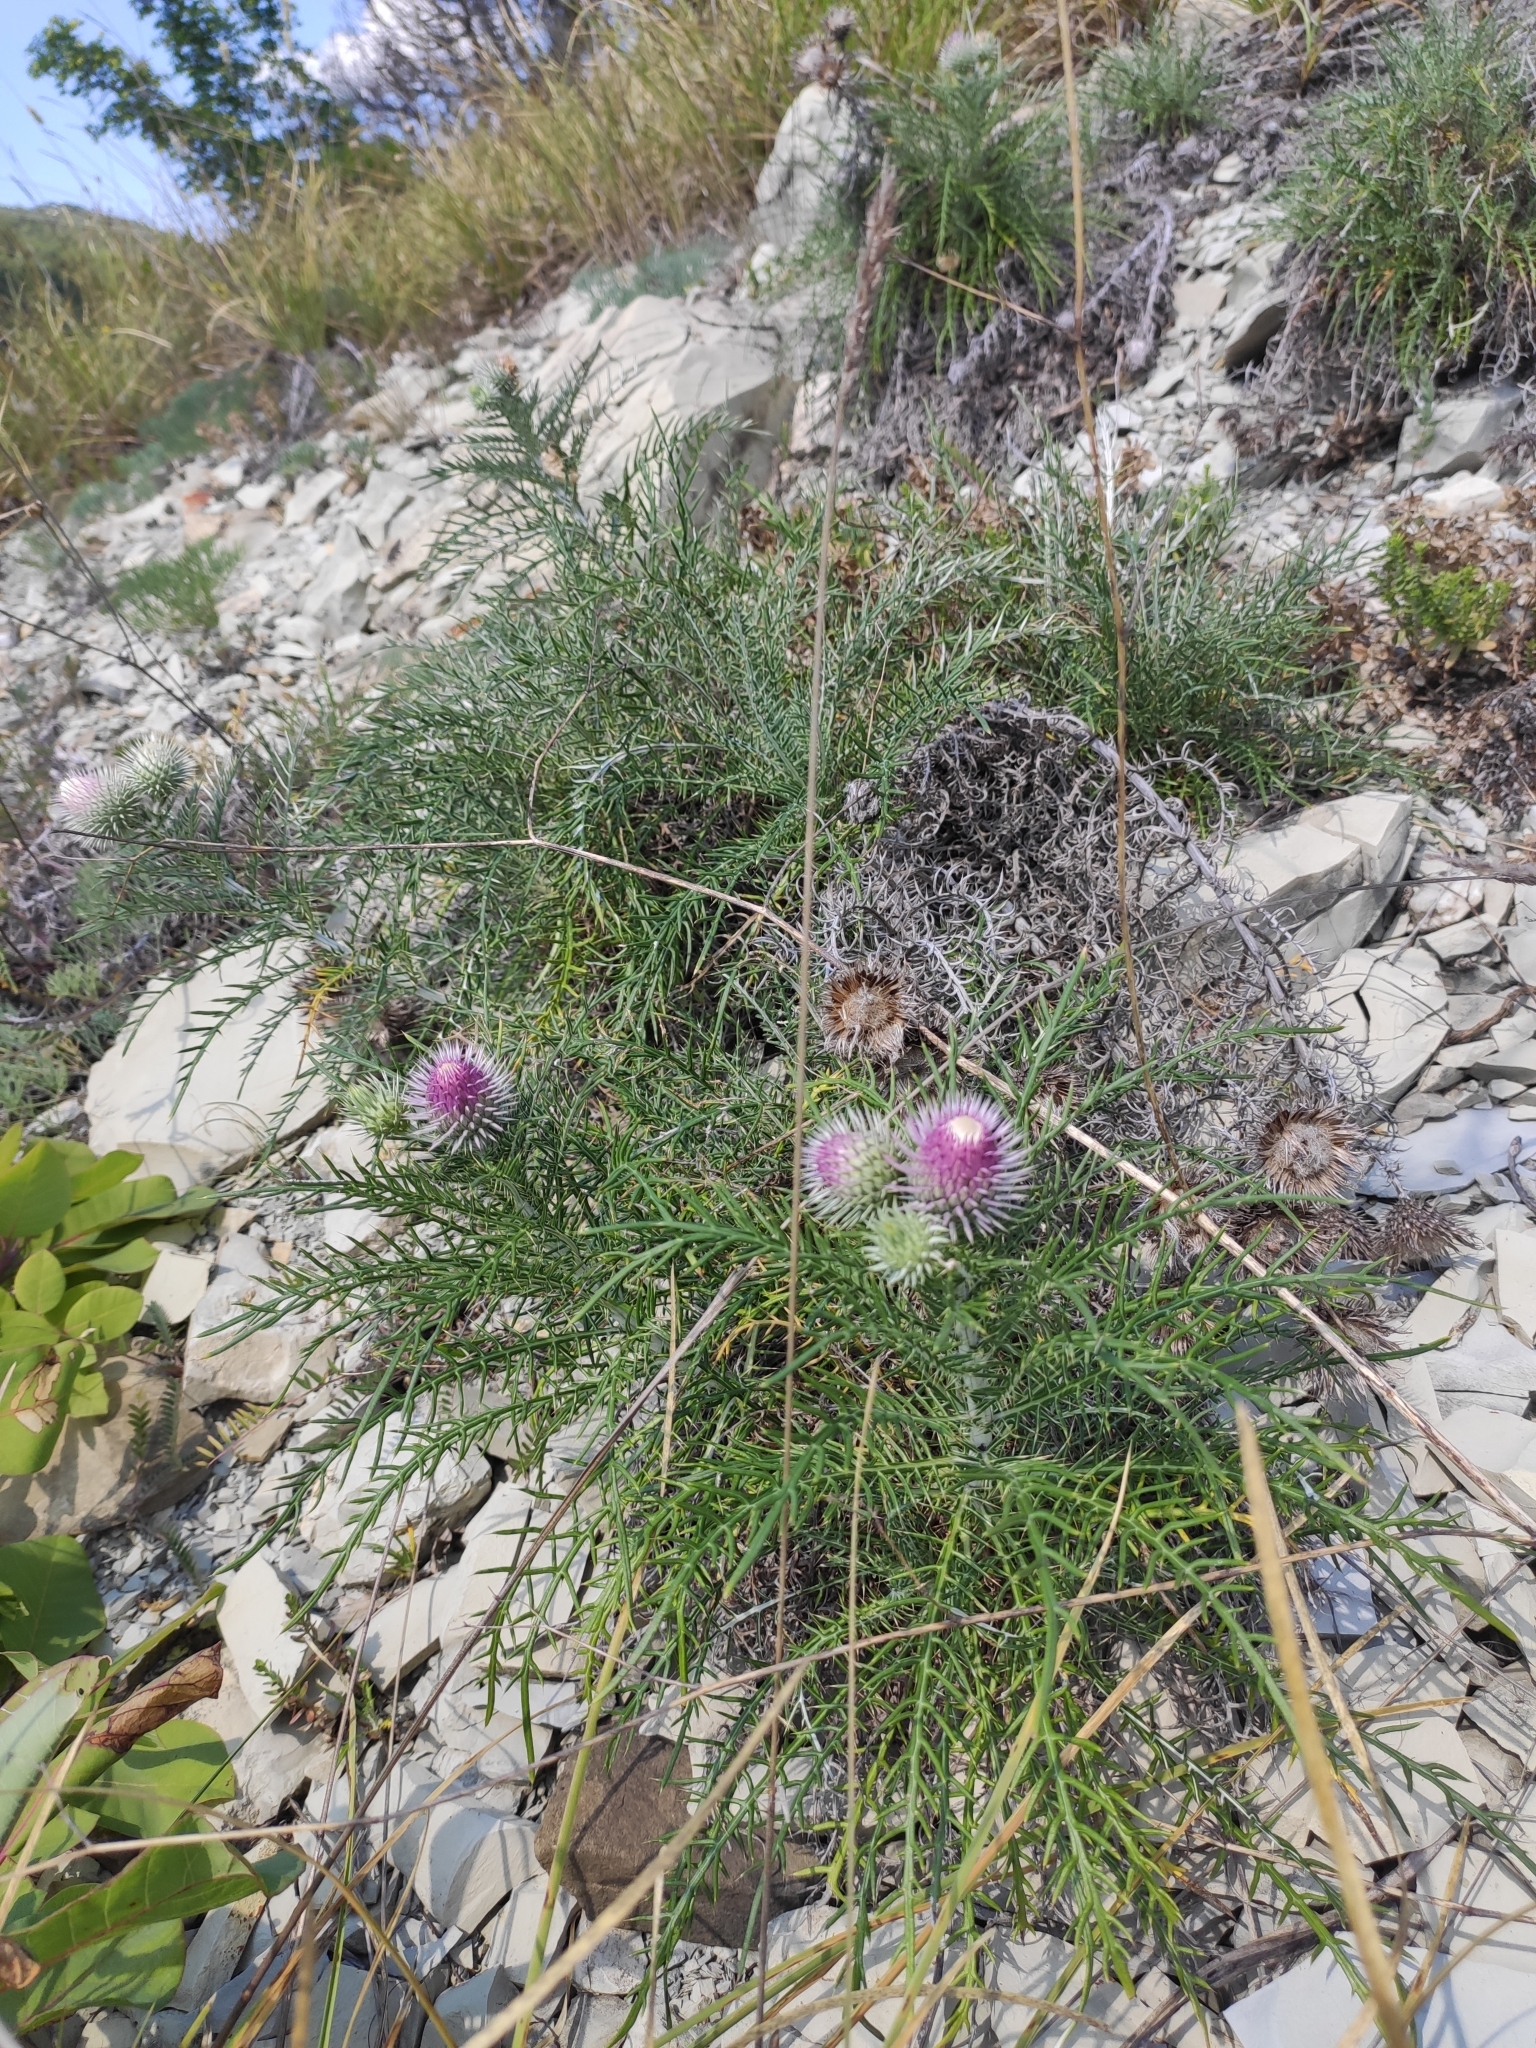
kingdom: Plantae
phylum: Tracheophyta
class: Magnoliopsida
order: Asterales
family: Asteraceae
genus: Ptilostemon
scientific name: Ptilostemon echinocephalus
